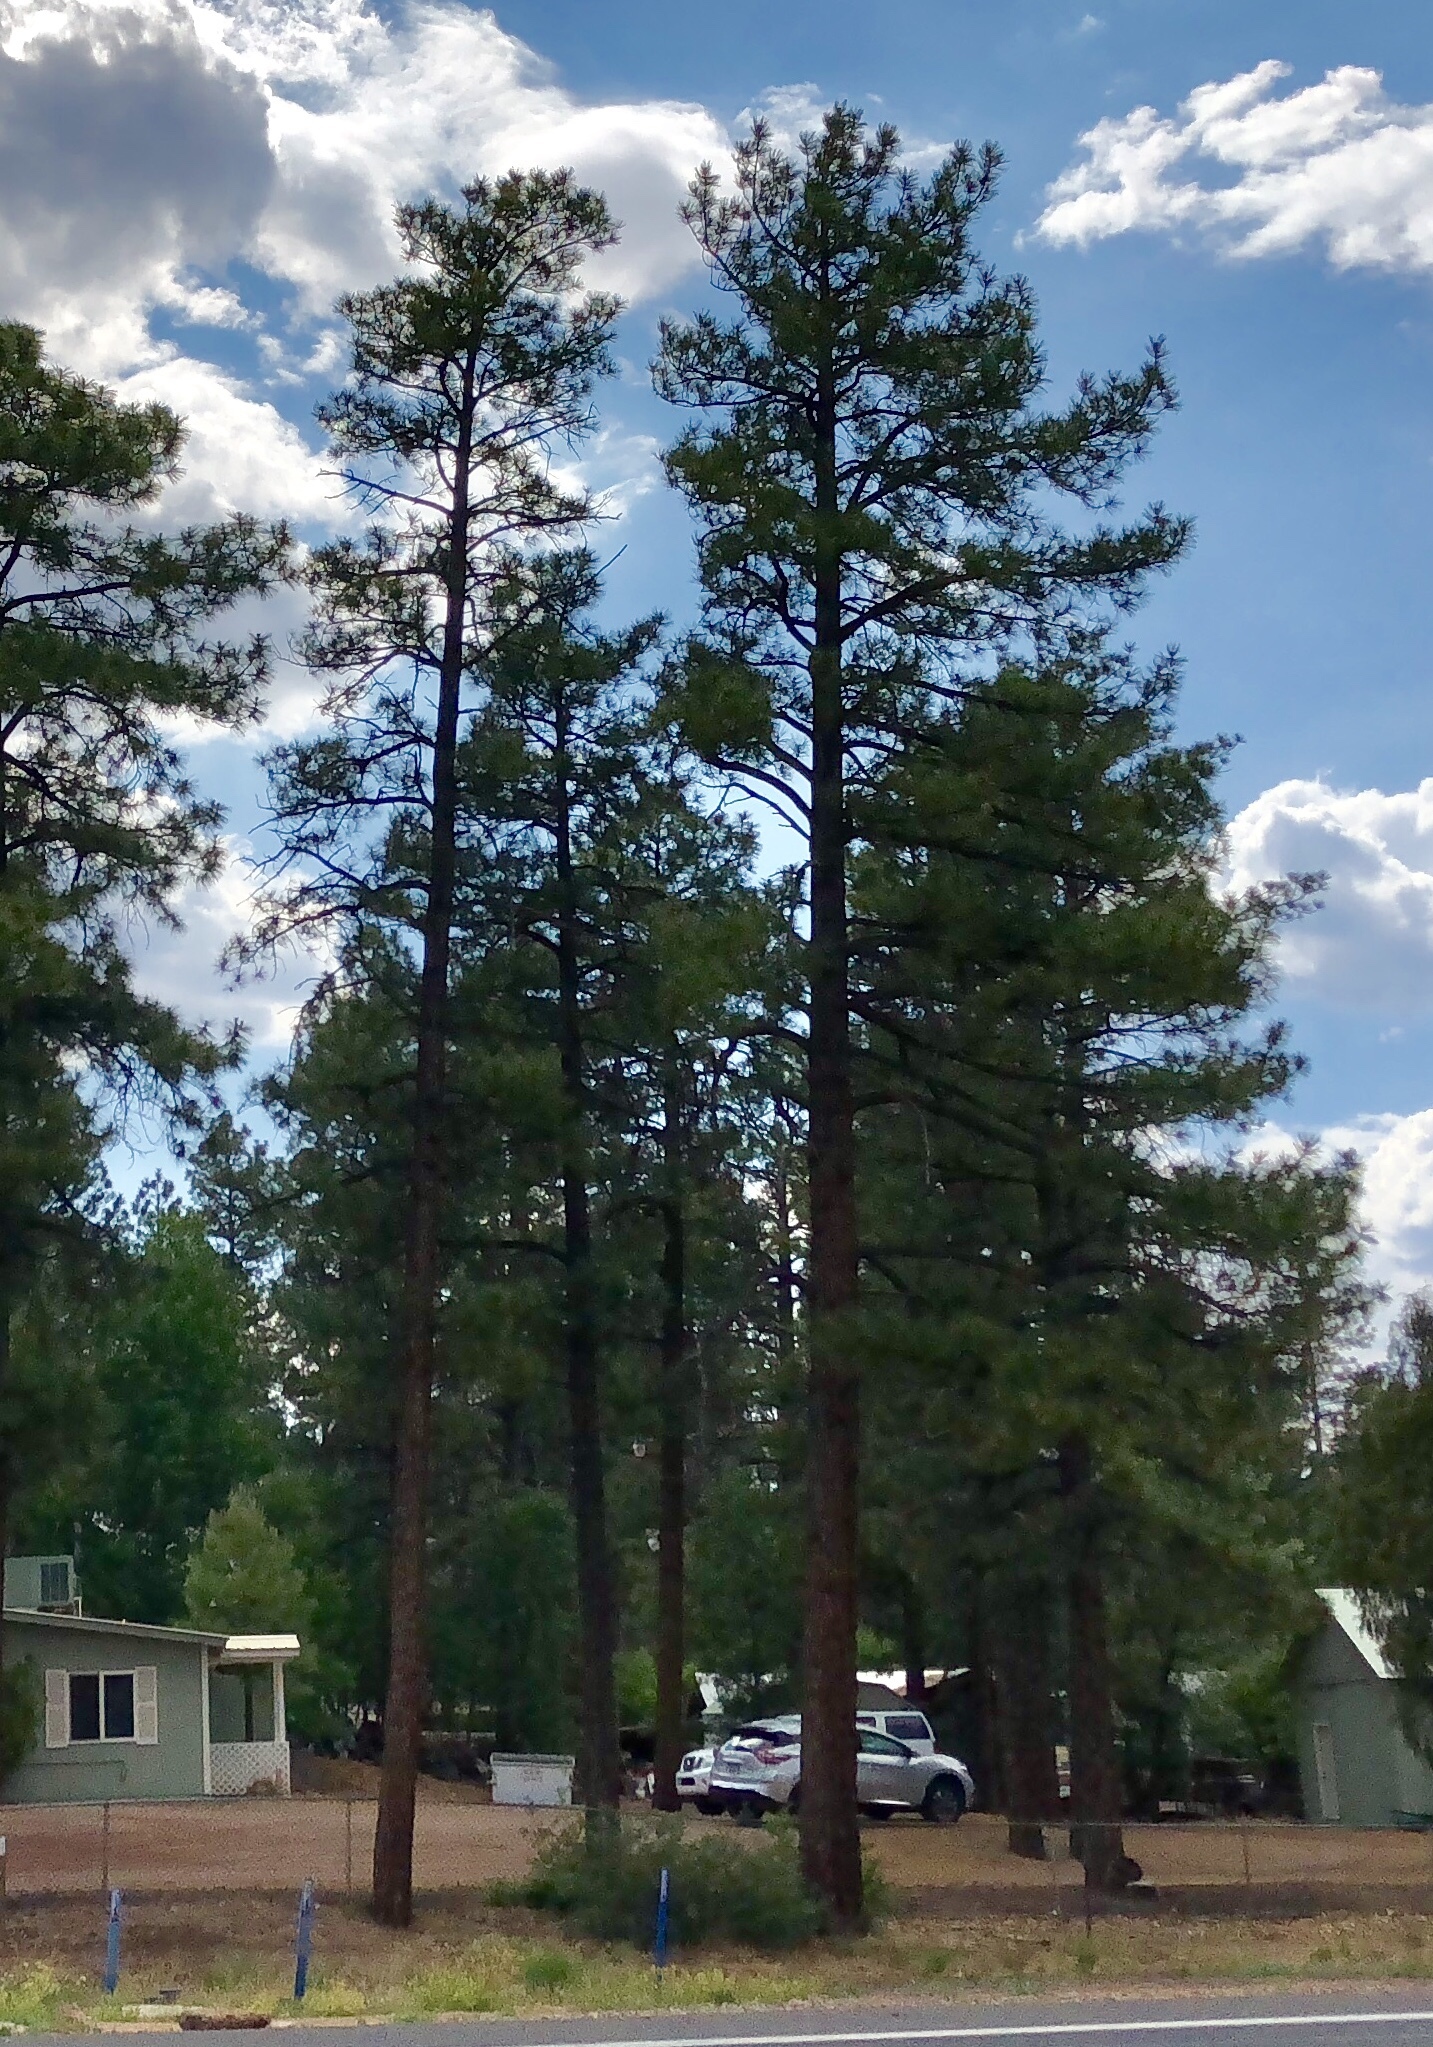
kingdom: Plantae
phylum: Tracheophyta
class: Pinopsida
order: Pinales
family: Pinaceae
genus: Pinus
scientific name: Pinus ponderosa
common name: Western yellow-pine
